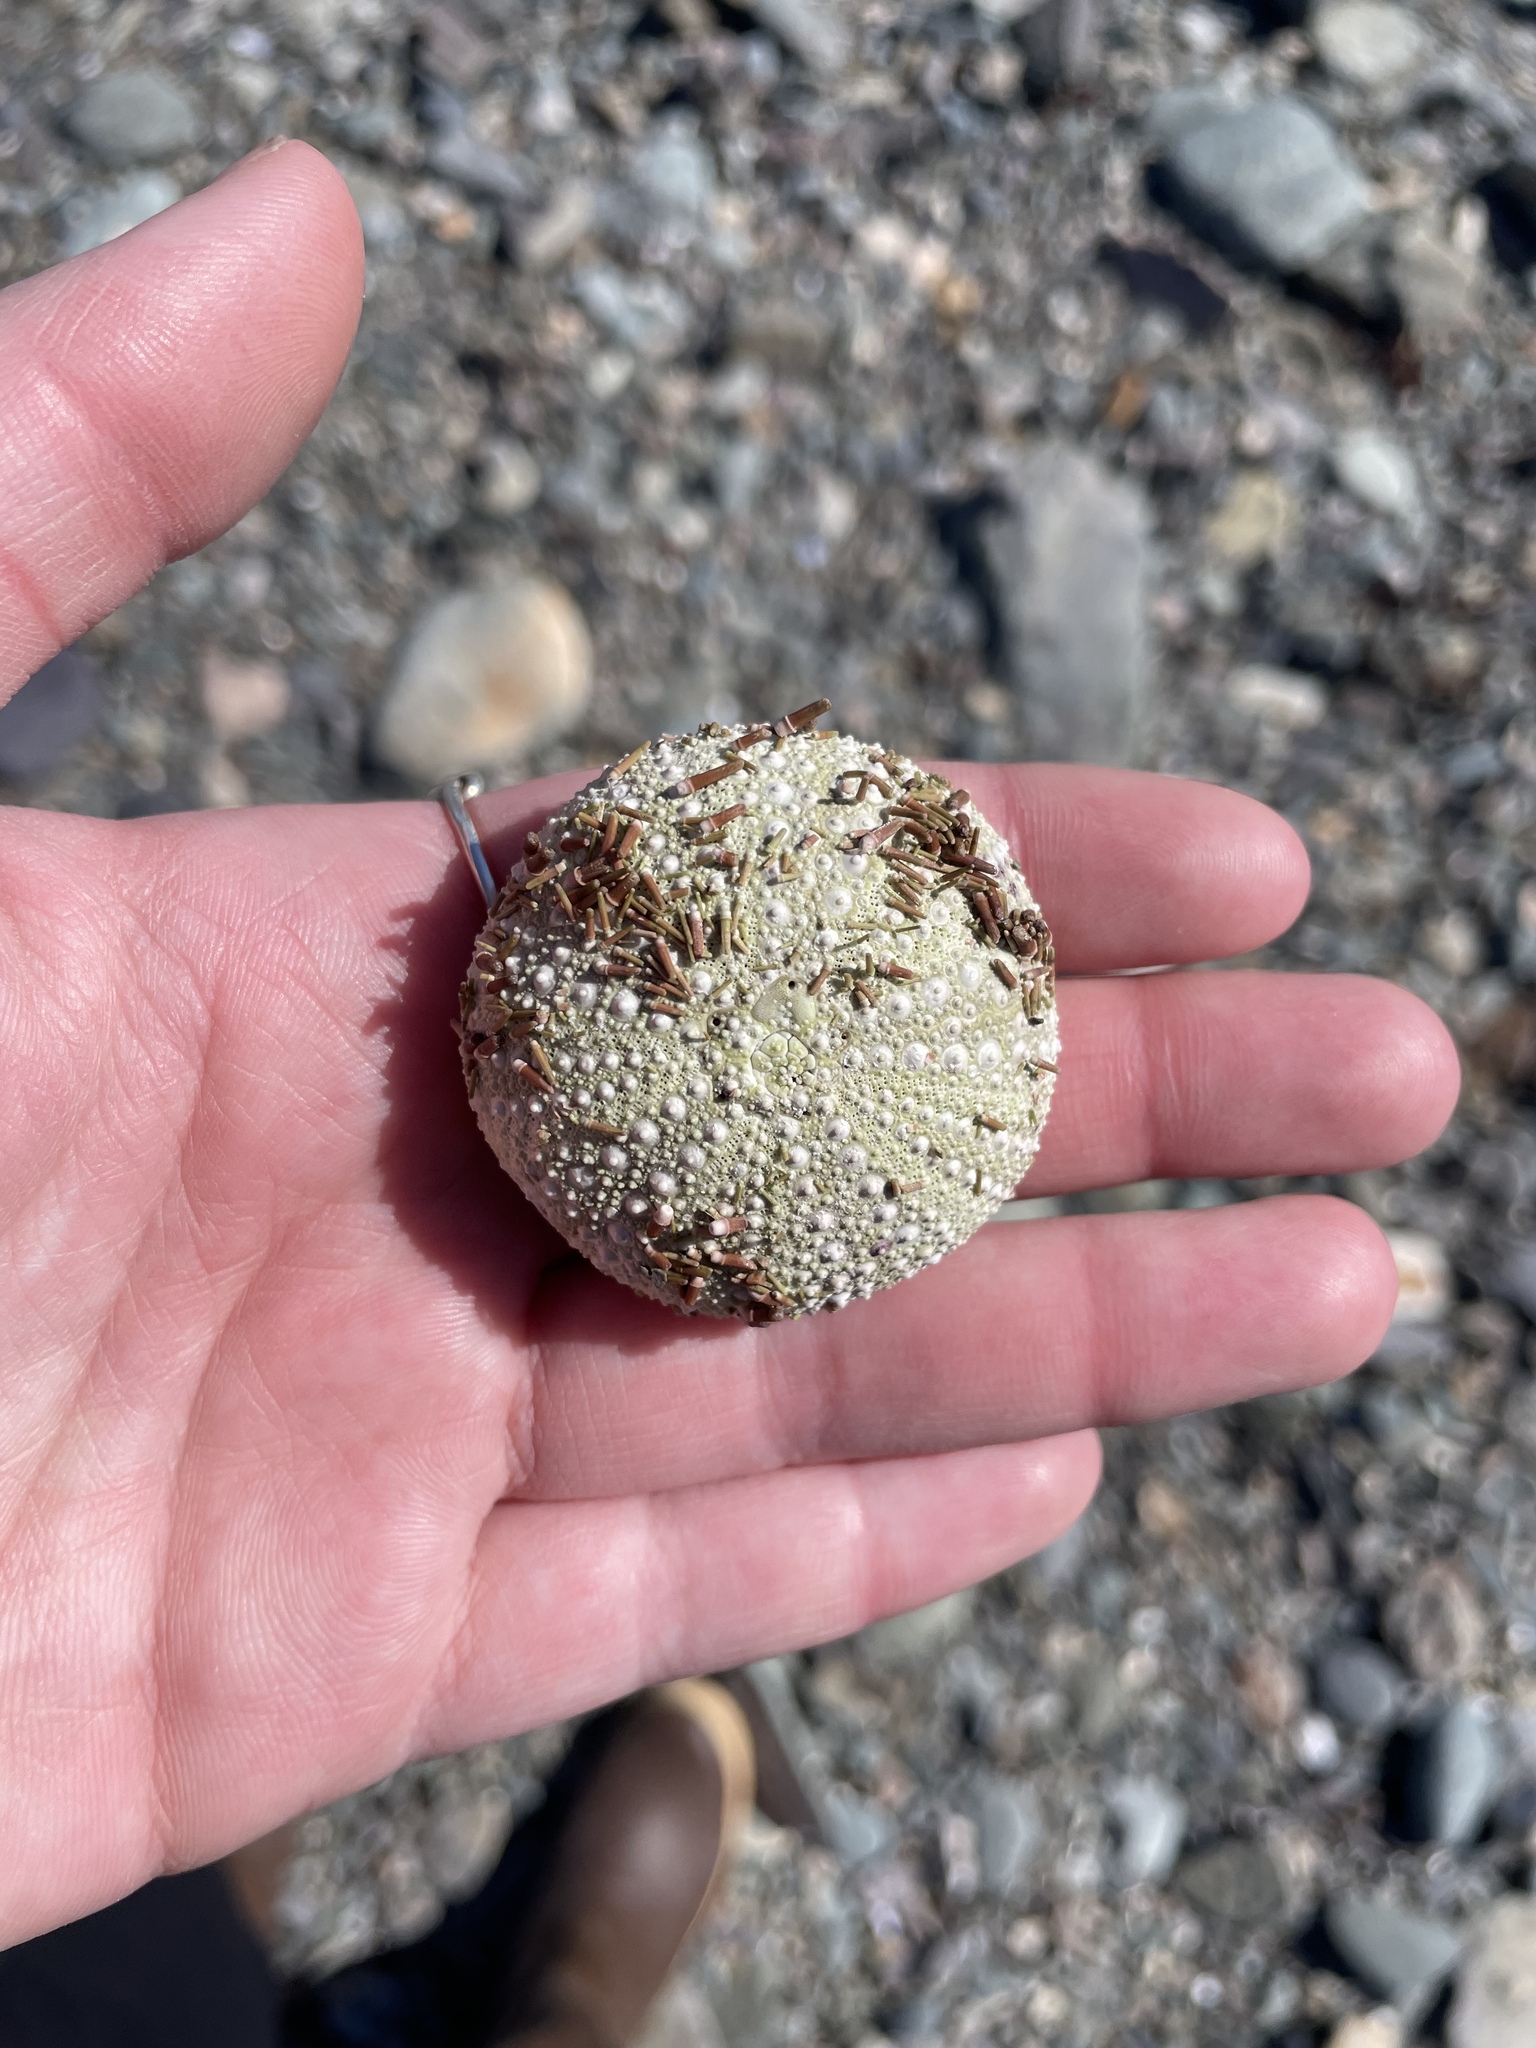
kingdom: Animalia
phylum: Echinodermata
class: Echinoidea
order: Camarodonta
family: Strongylocentrotidae
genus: Strongylocentrotus
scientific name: Strongylocentrotus droebachiensis
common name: Northern sea urchin
